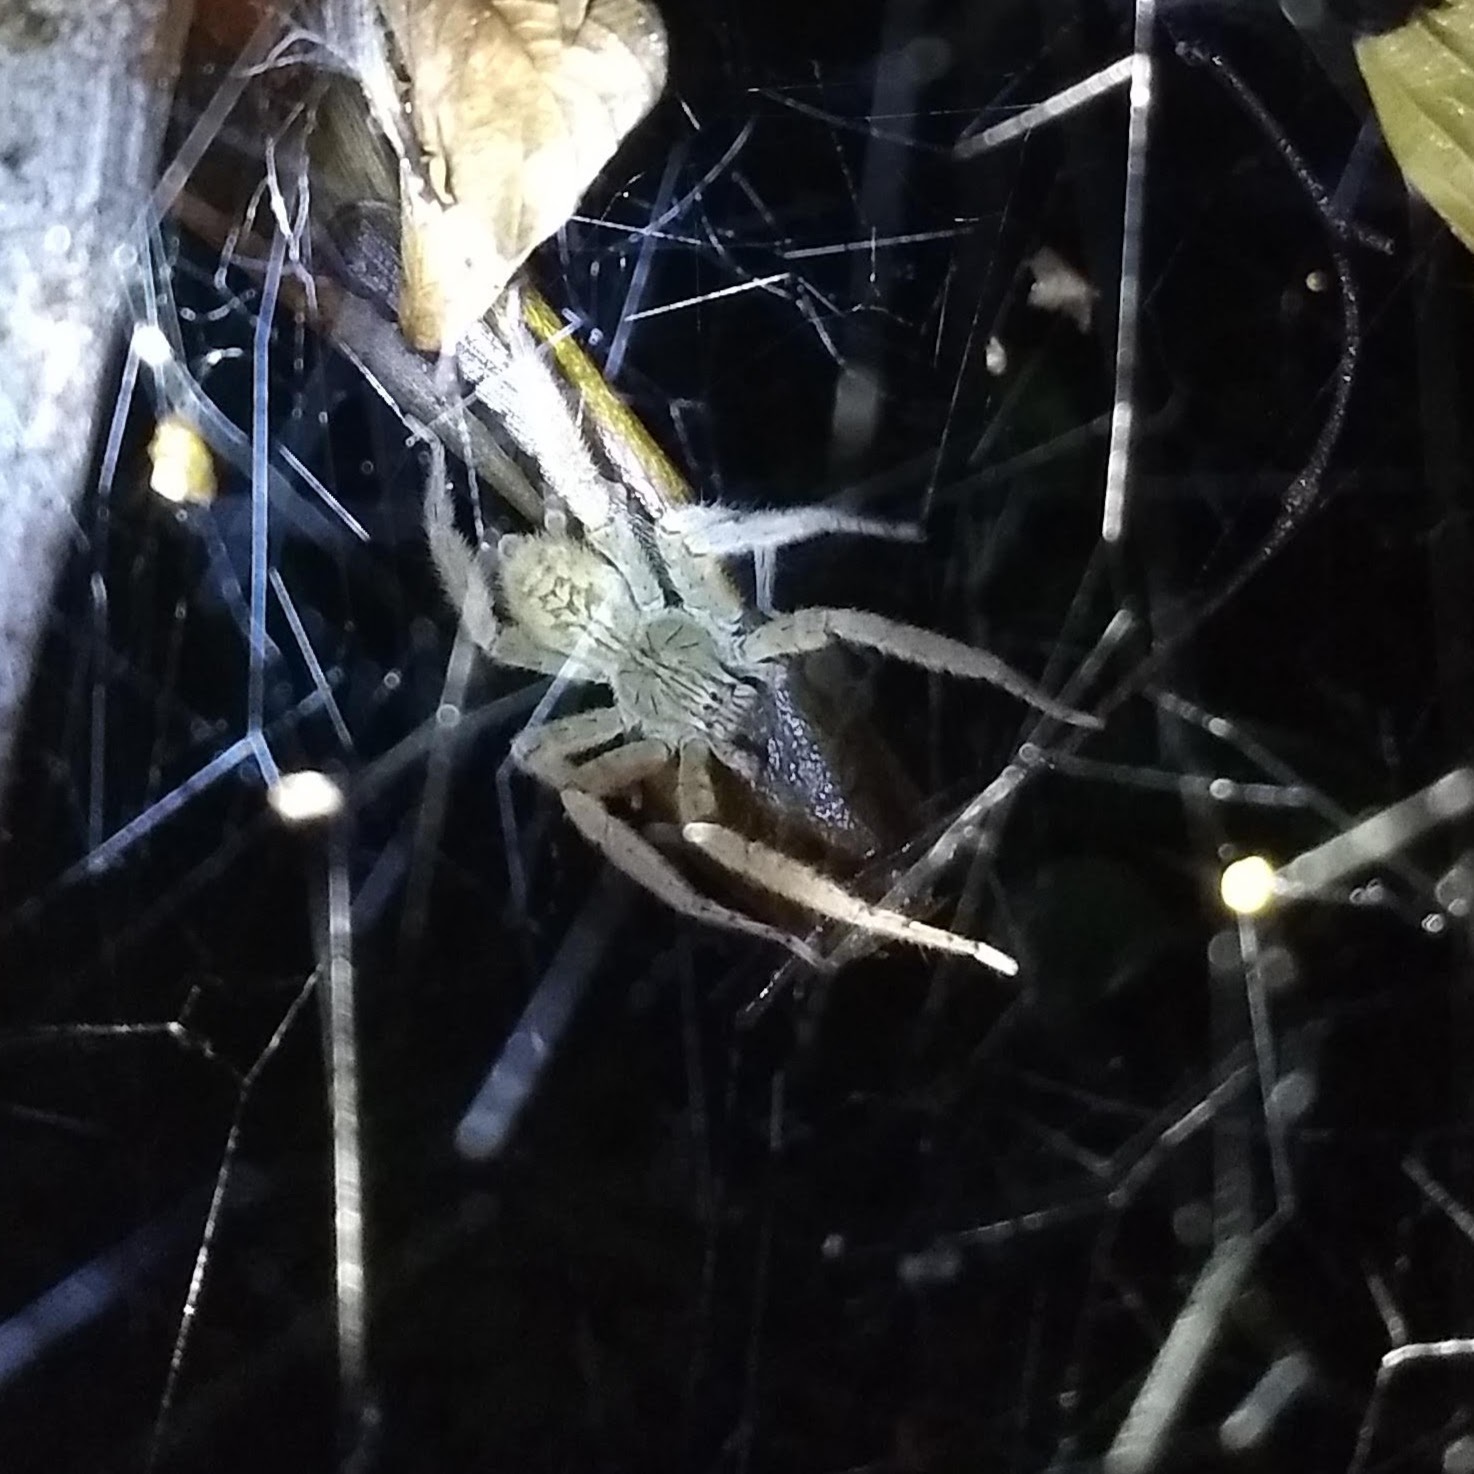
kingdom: Animalia
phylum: Arthropoda
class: Arachnida
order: Araneae
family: Trechaleidae
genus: Cupiennius
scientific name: Cupiennius coccineus
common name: Wandering spiders
